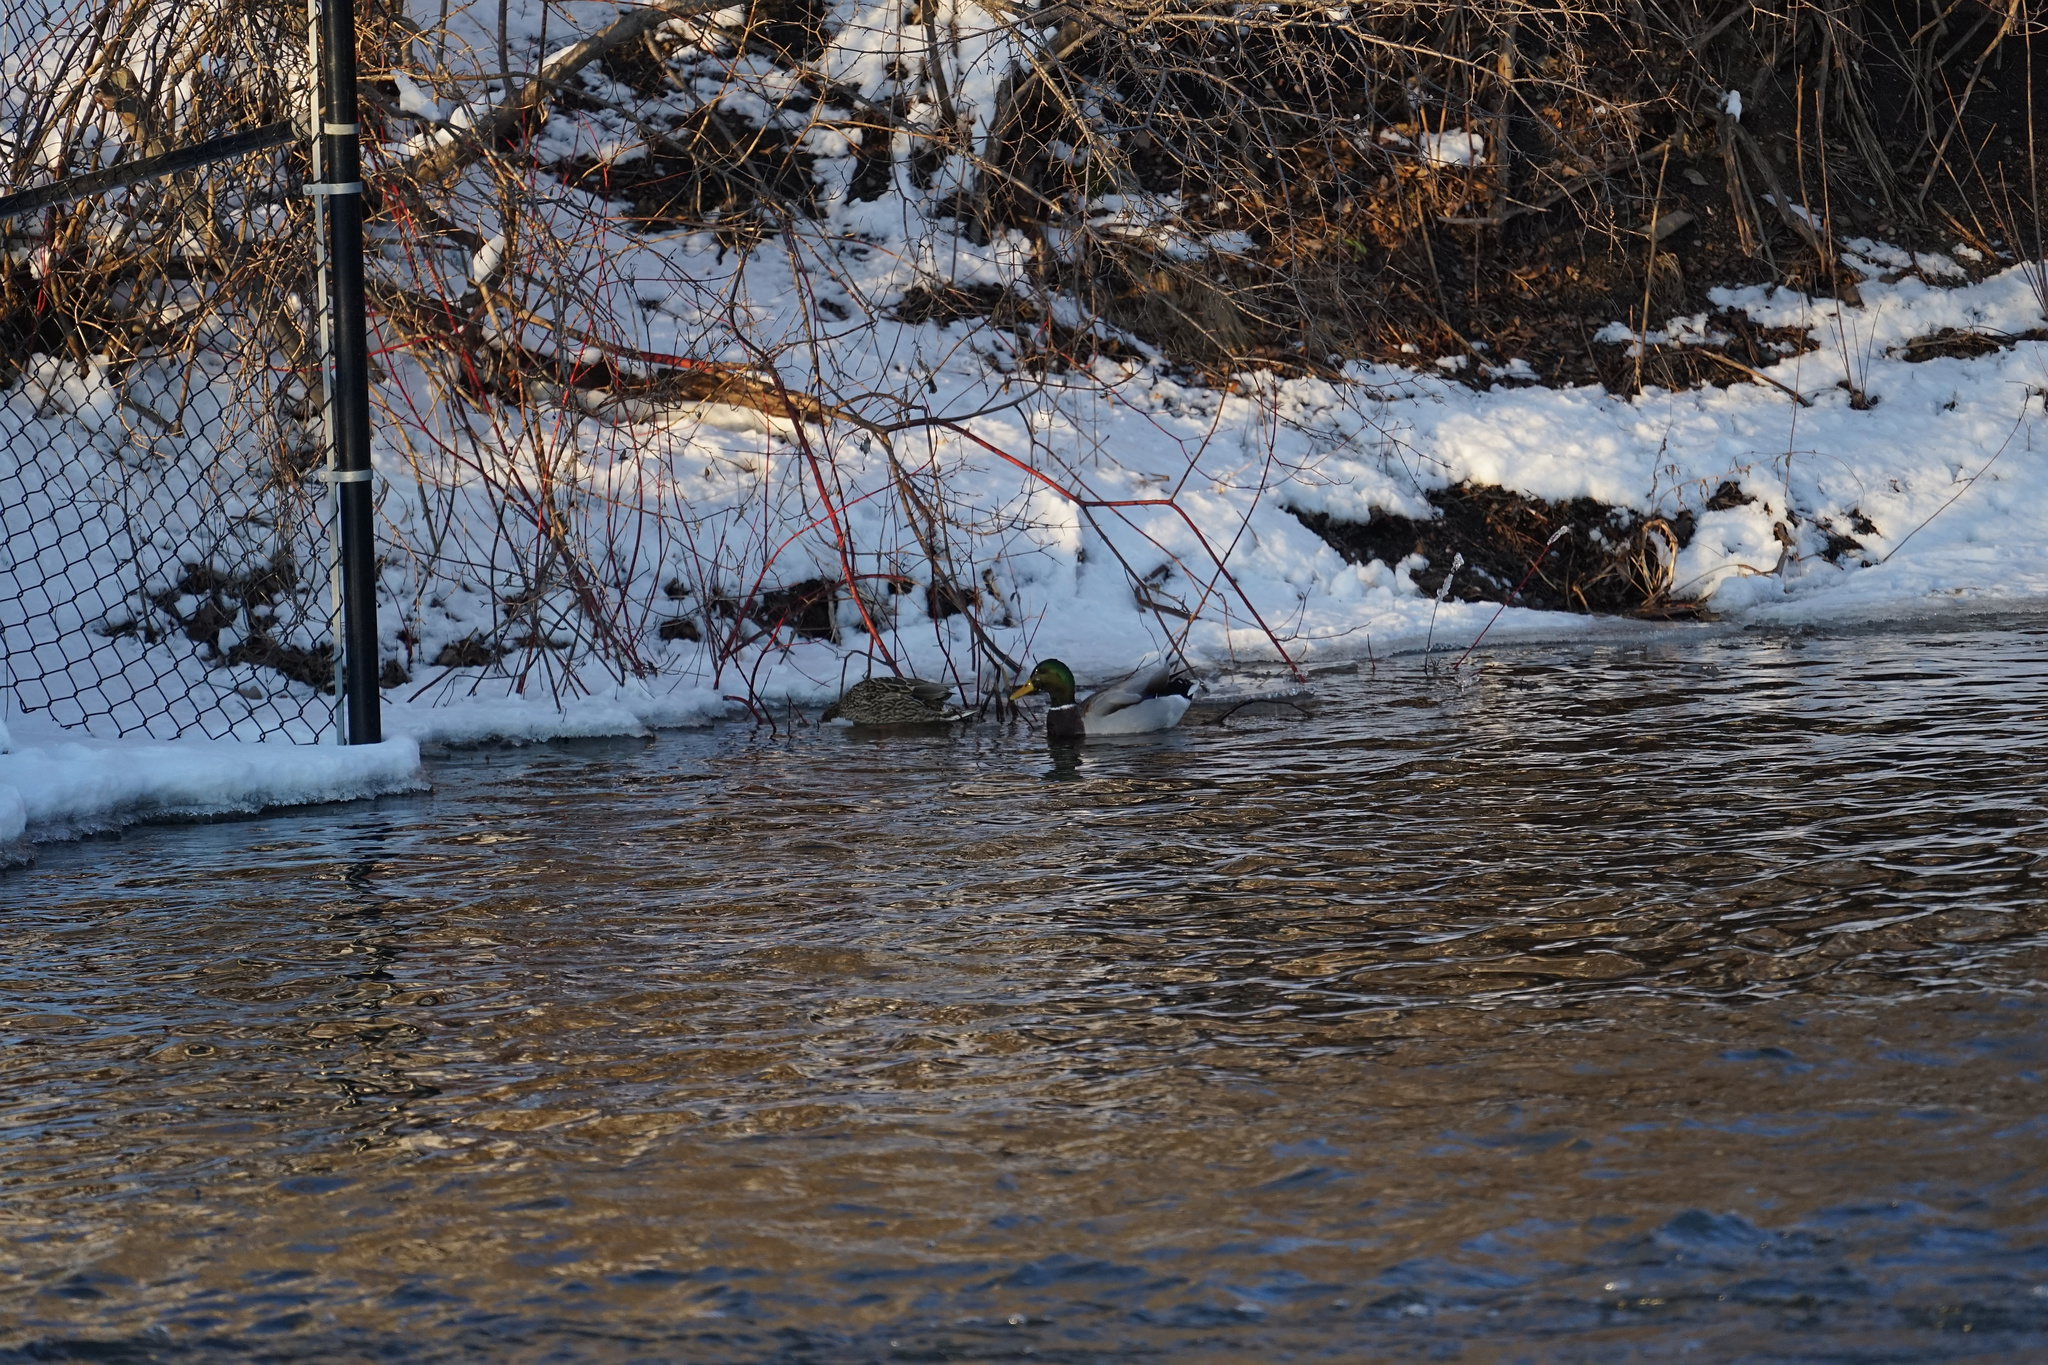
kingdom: Animalia
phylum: Chordata
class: Aves
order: Anseriformes
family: Anatidae
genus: Anas
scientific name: Anas platyrhynchos
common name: Mallard
